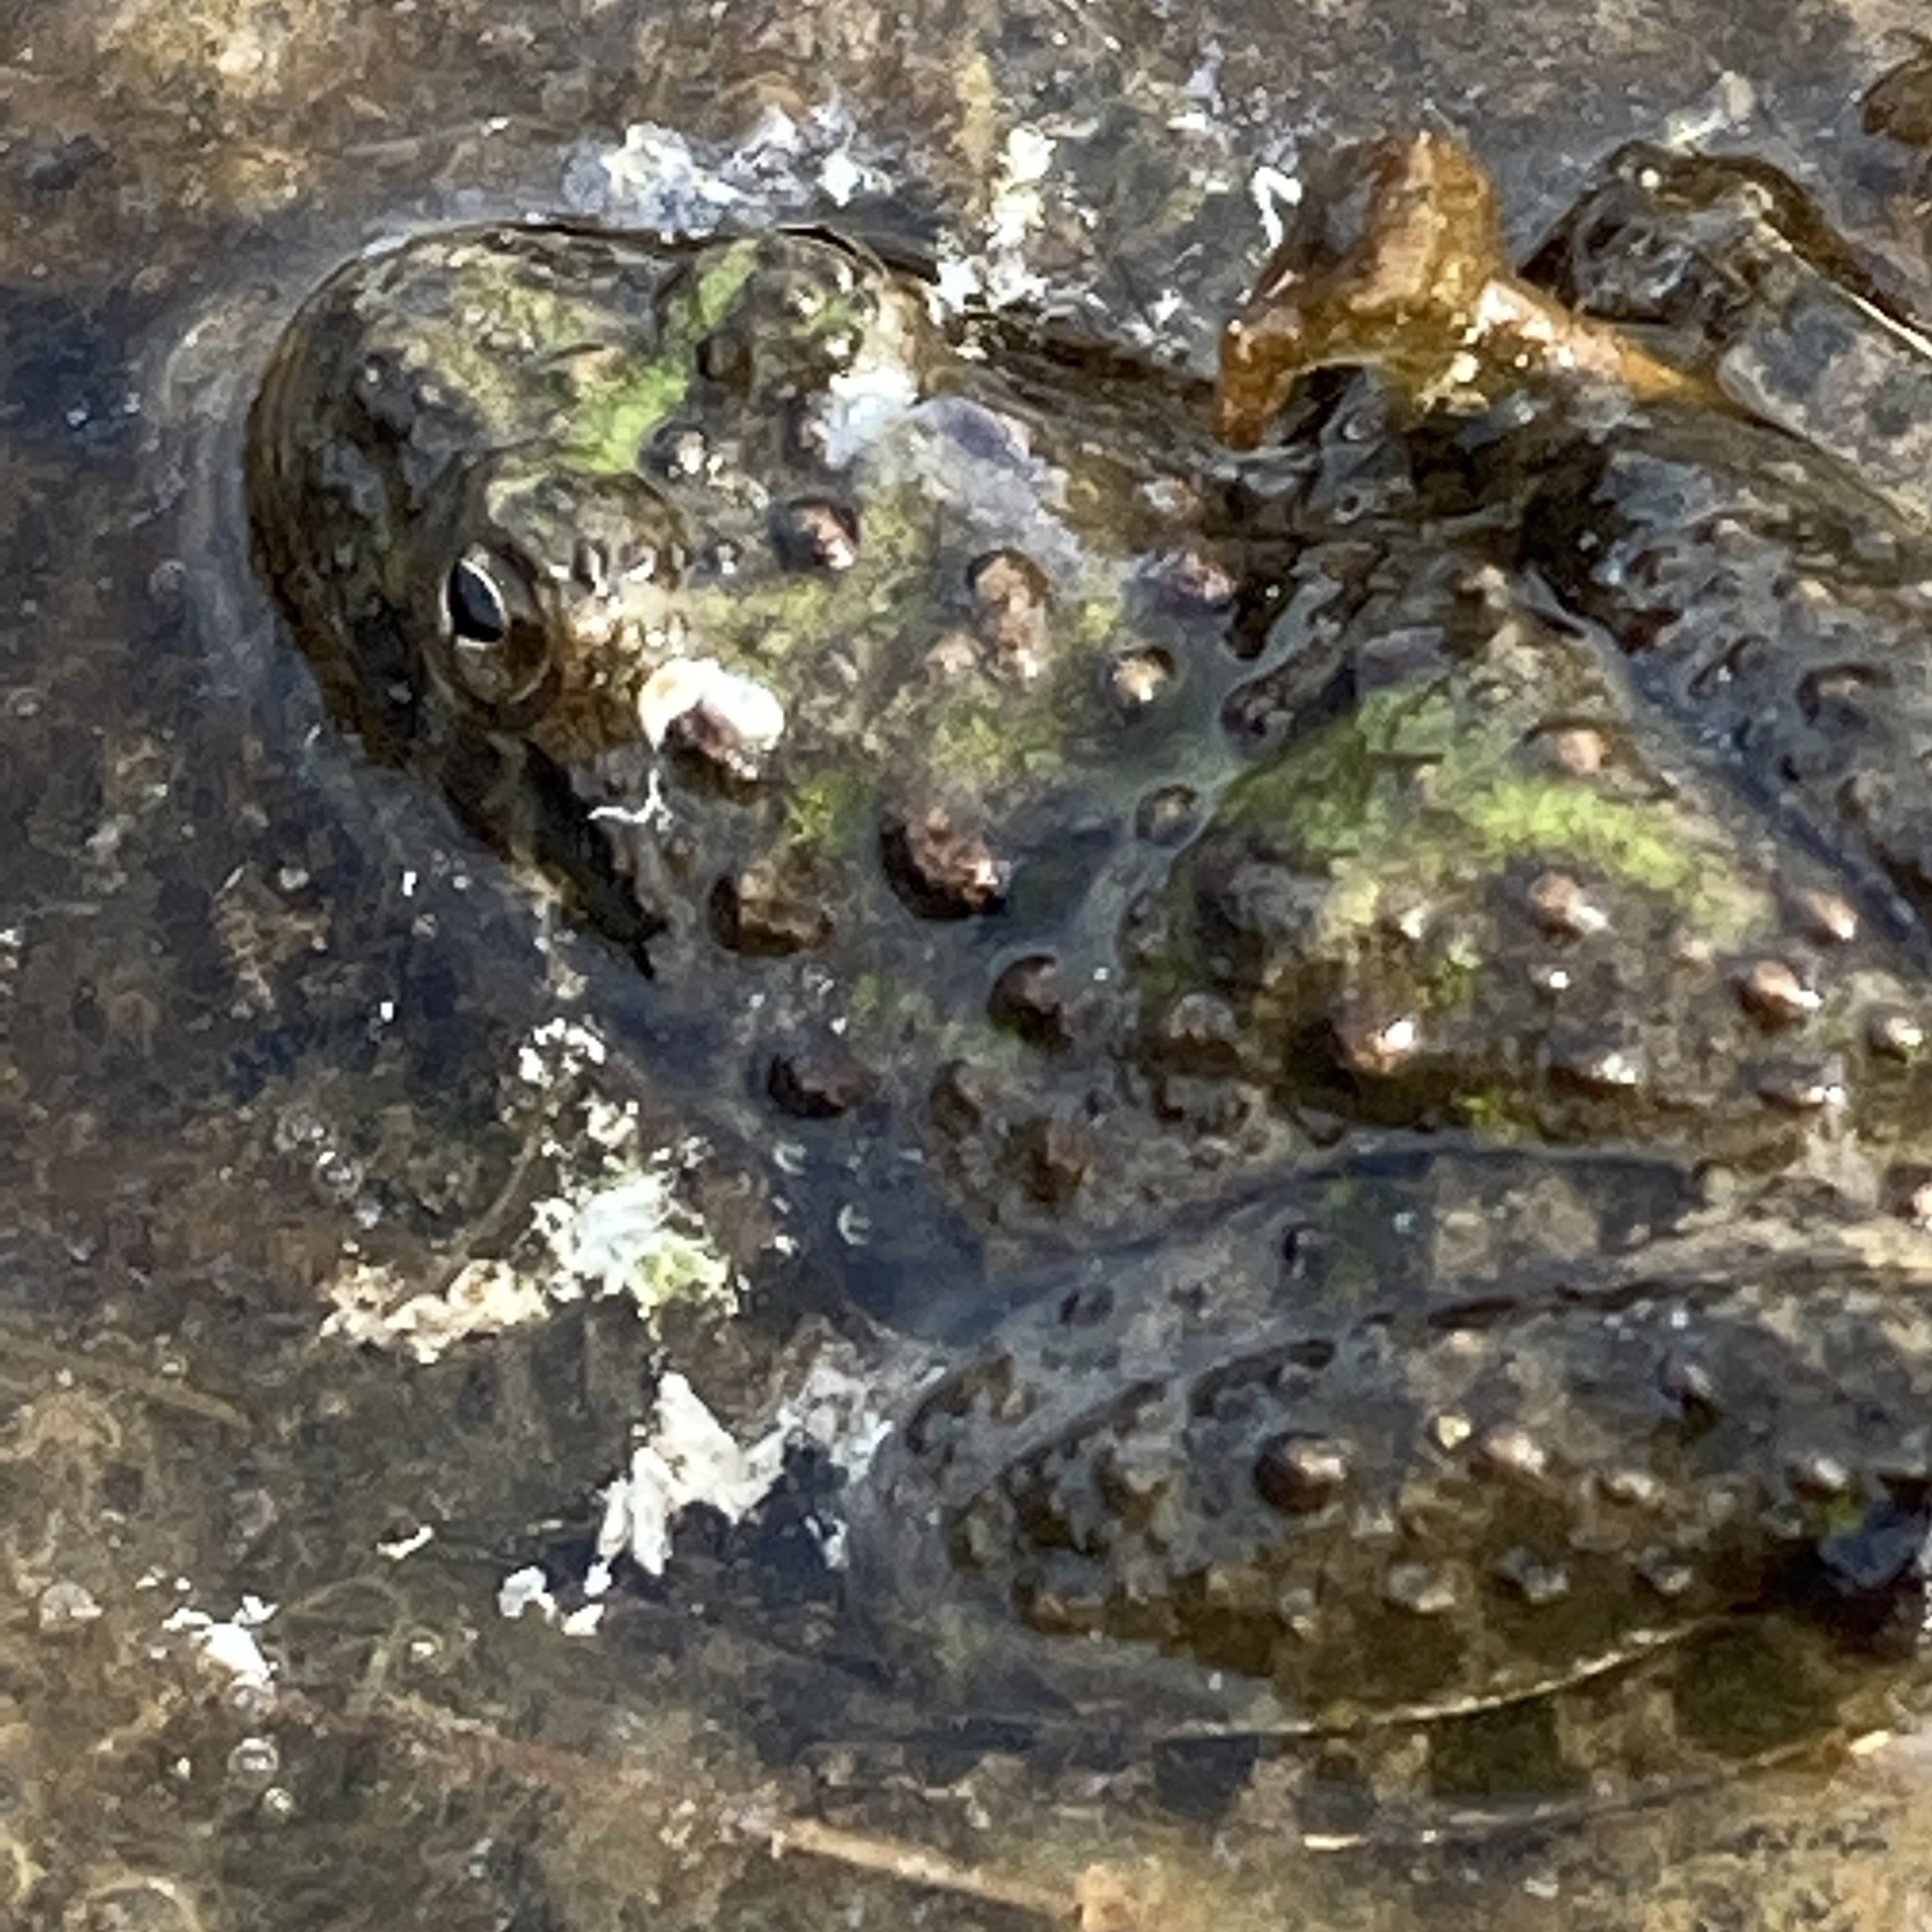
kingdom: Animalia
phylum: Chordata
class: Amphibia
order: Anura
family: Hylidae
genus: Acris
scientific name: Acris blanchardi
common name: Blanchard's cricket frog
